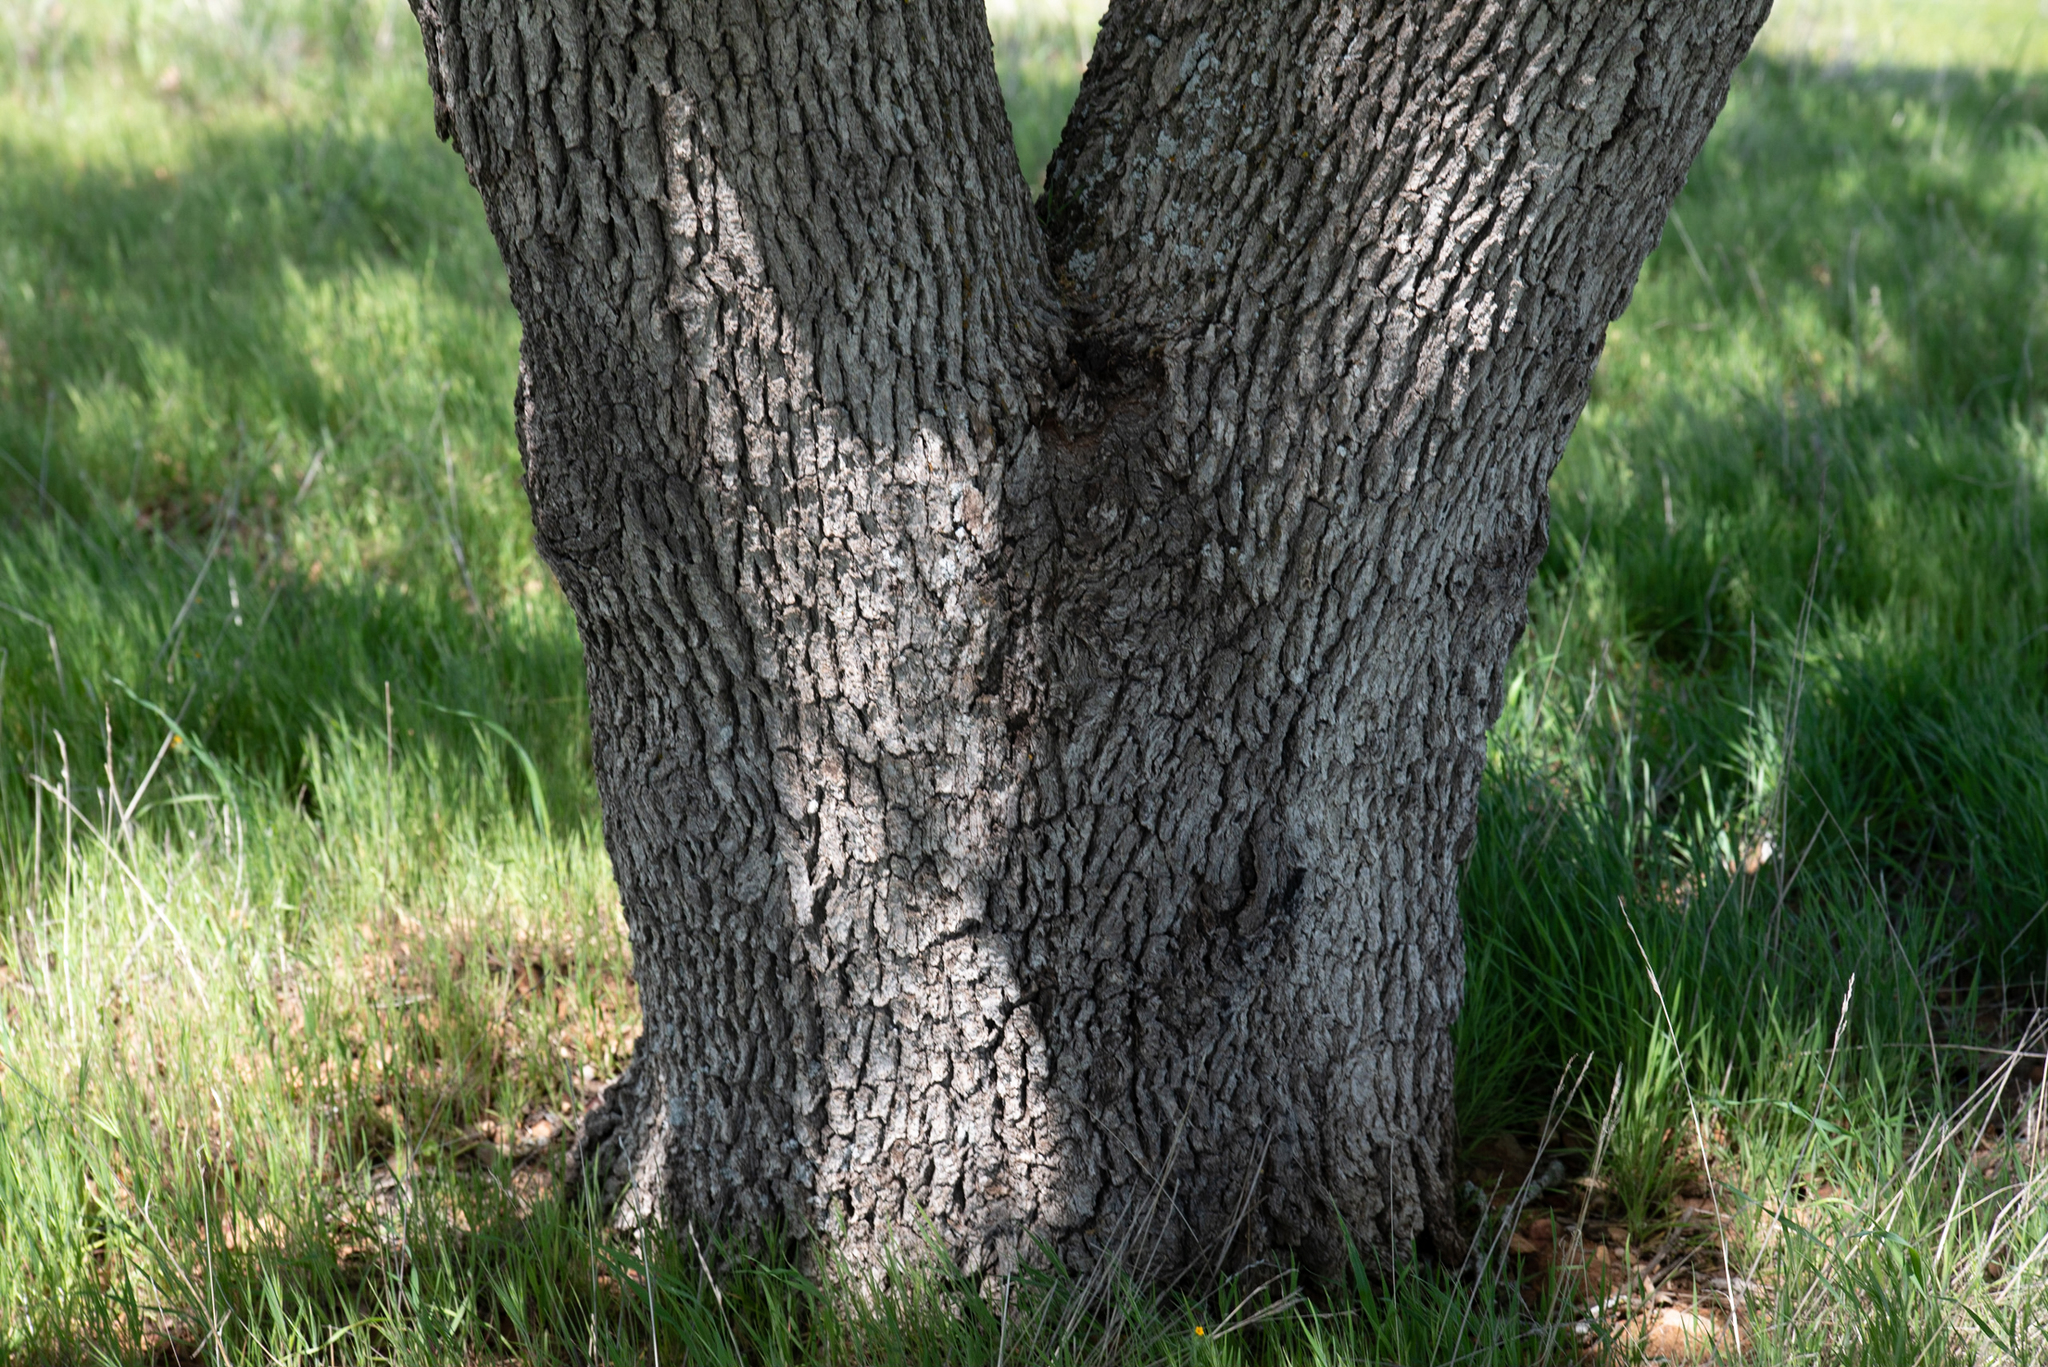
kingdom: Plantae
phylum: Tracheophyta
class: Magnoliopsida
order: Fagales
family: Fagaceae
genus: Quercus
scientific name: Quercus douglasii
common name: Blue oak
